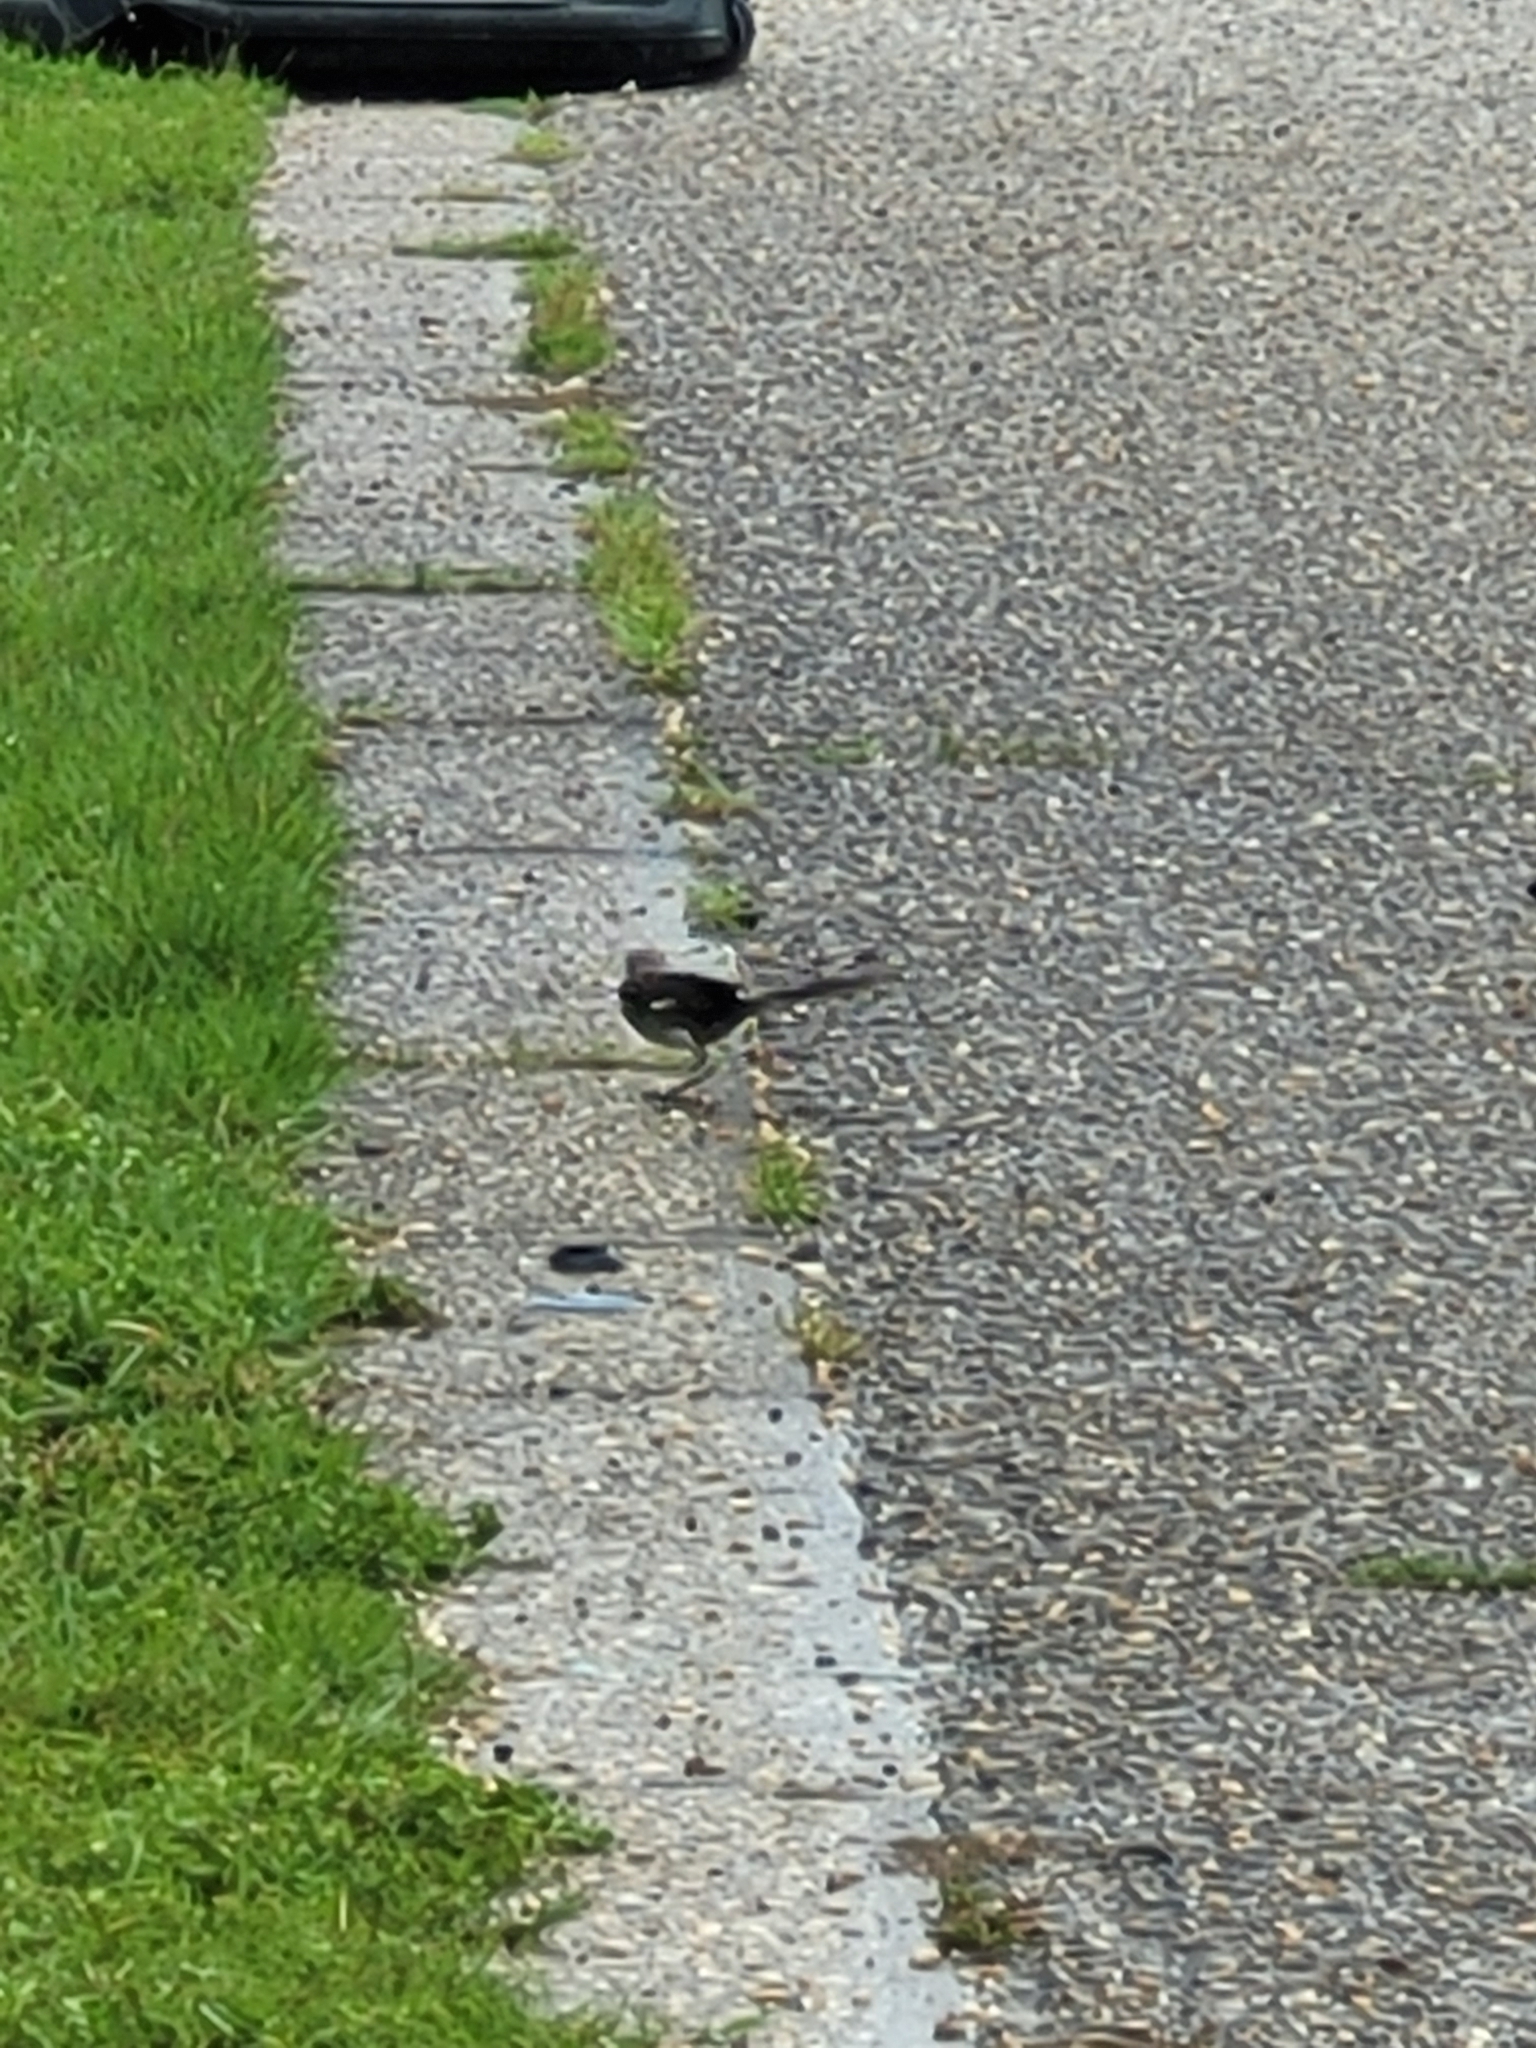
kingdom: Animalia
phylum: Chordata
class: Aves
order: Passeriformes
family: Mimidae
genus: Mimus
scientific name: Mimus polyglottos
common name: Northern mockingbird
